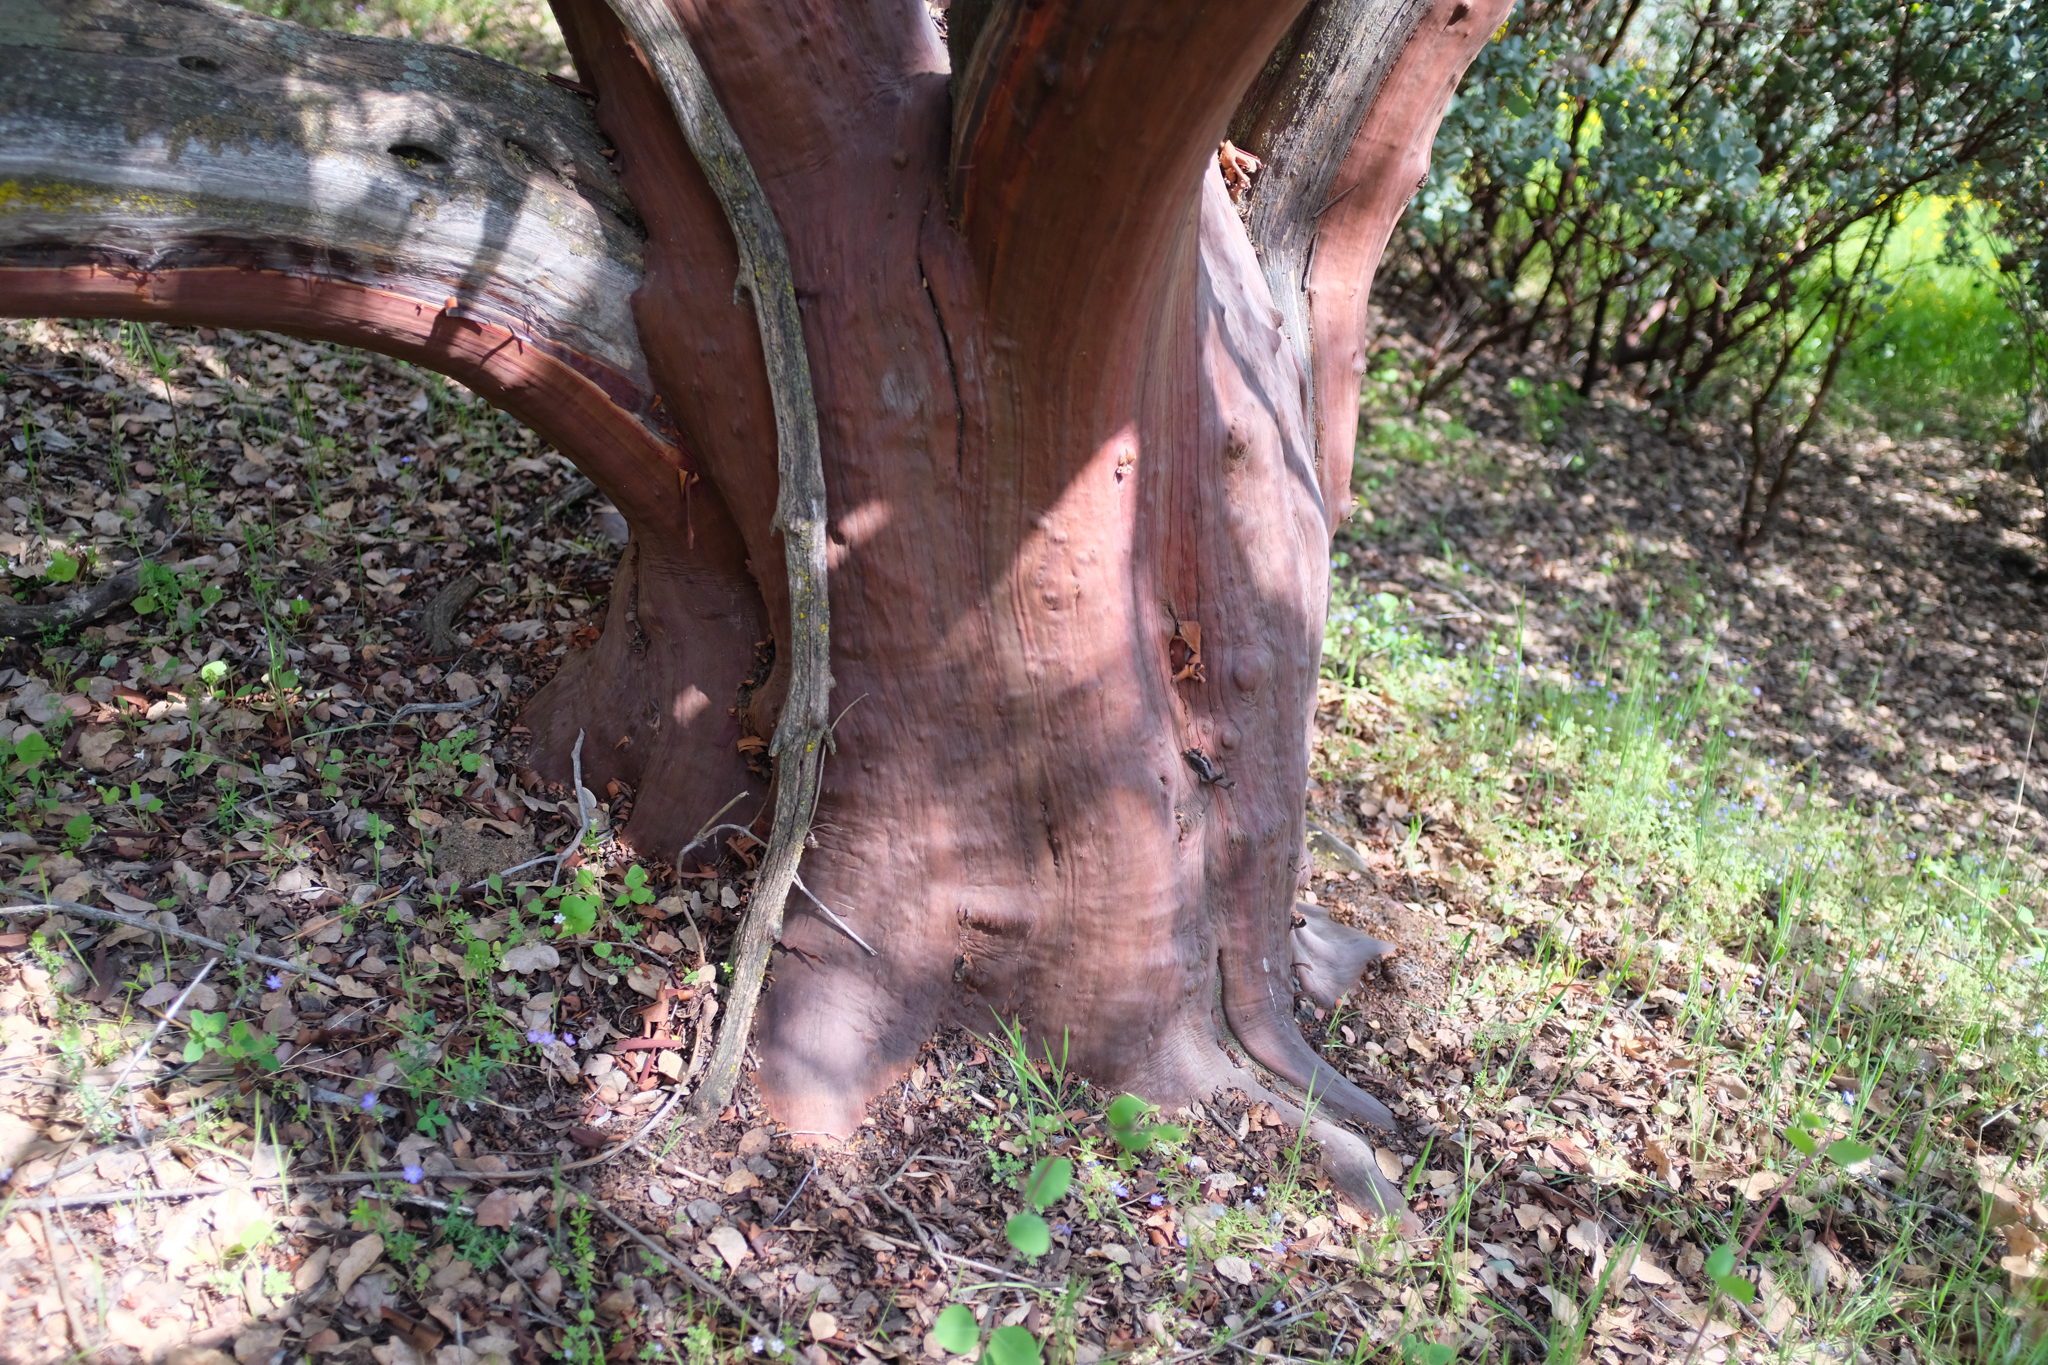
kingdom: Plantae
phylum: Tracheophyta
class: Magnoliopsida
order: Ericales
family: Ericaceae
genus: Arctostaphylos
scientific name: Arctostaphylos viscida
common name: White-leaf manzanita
